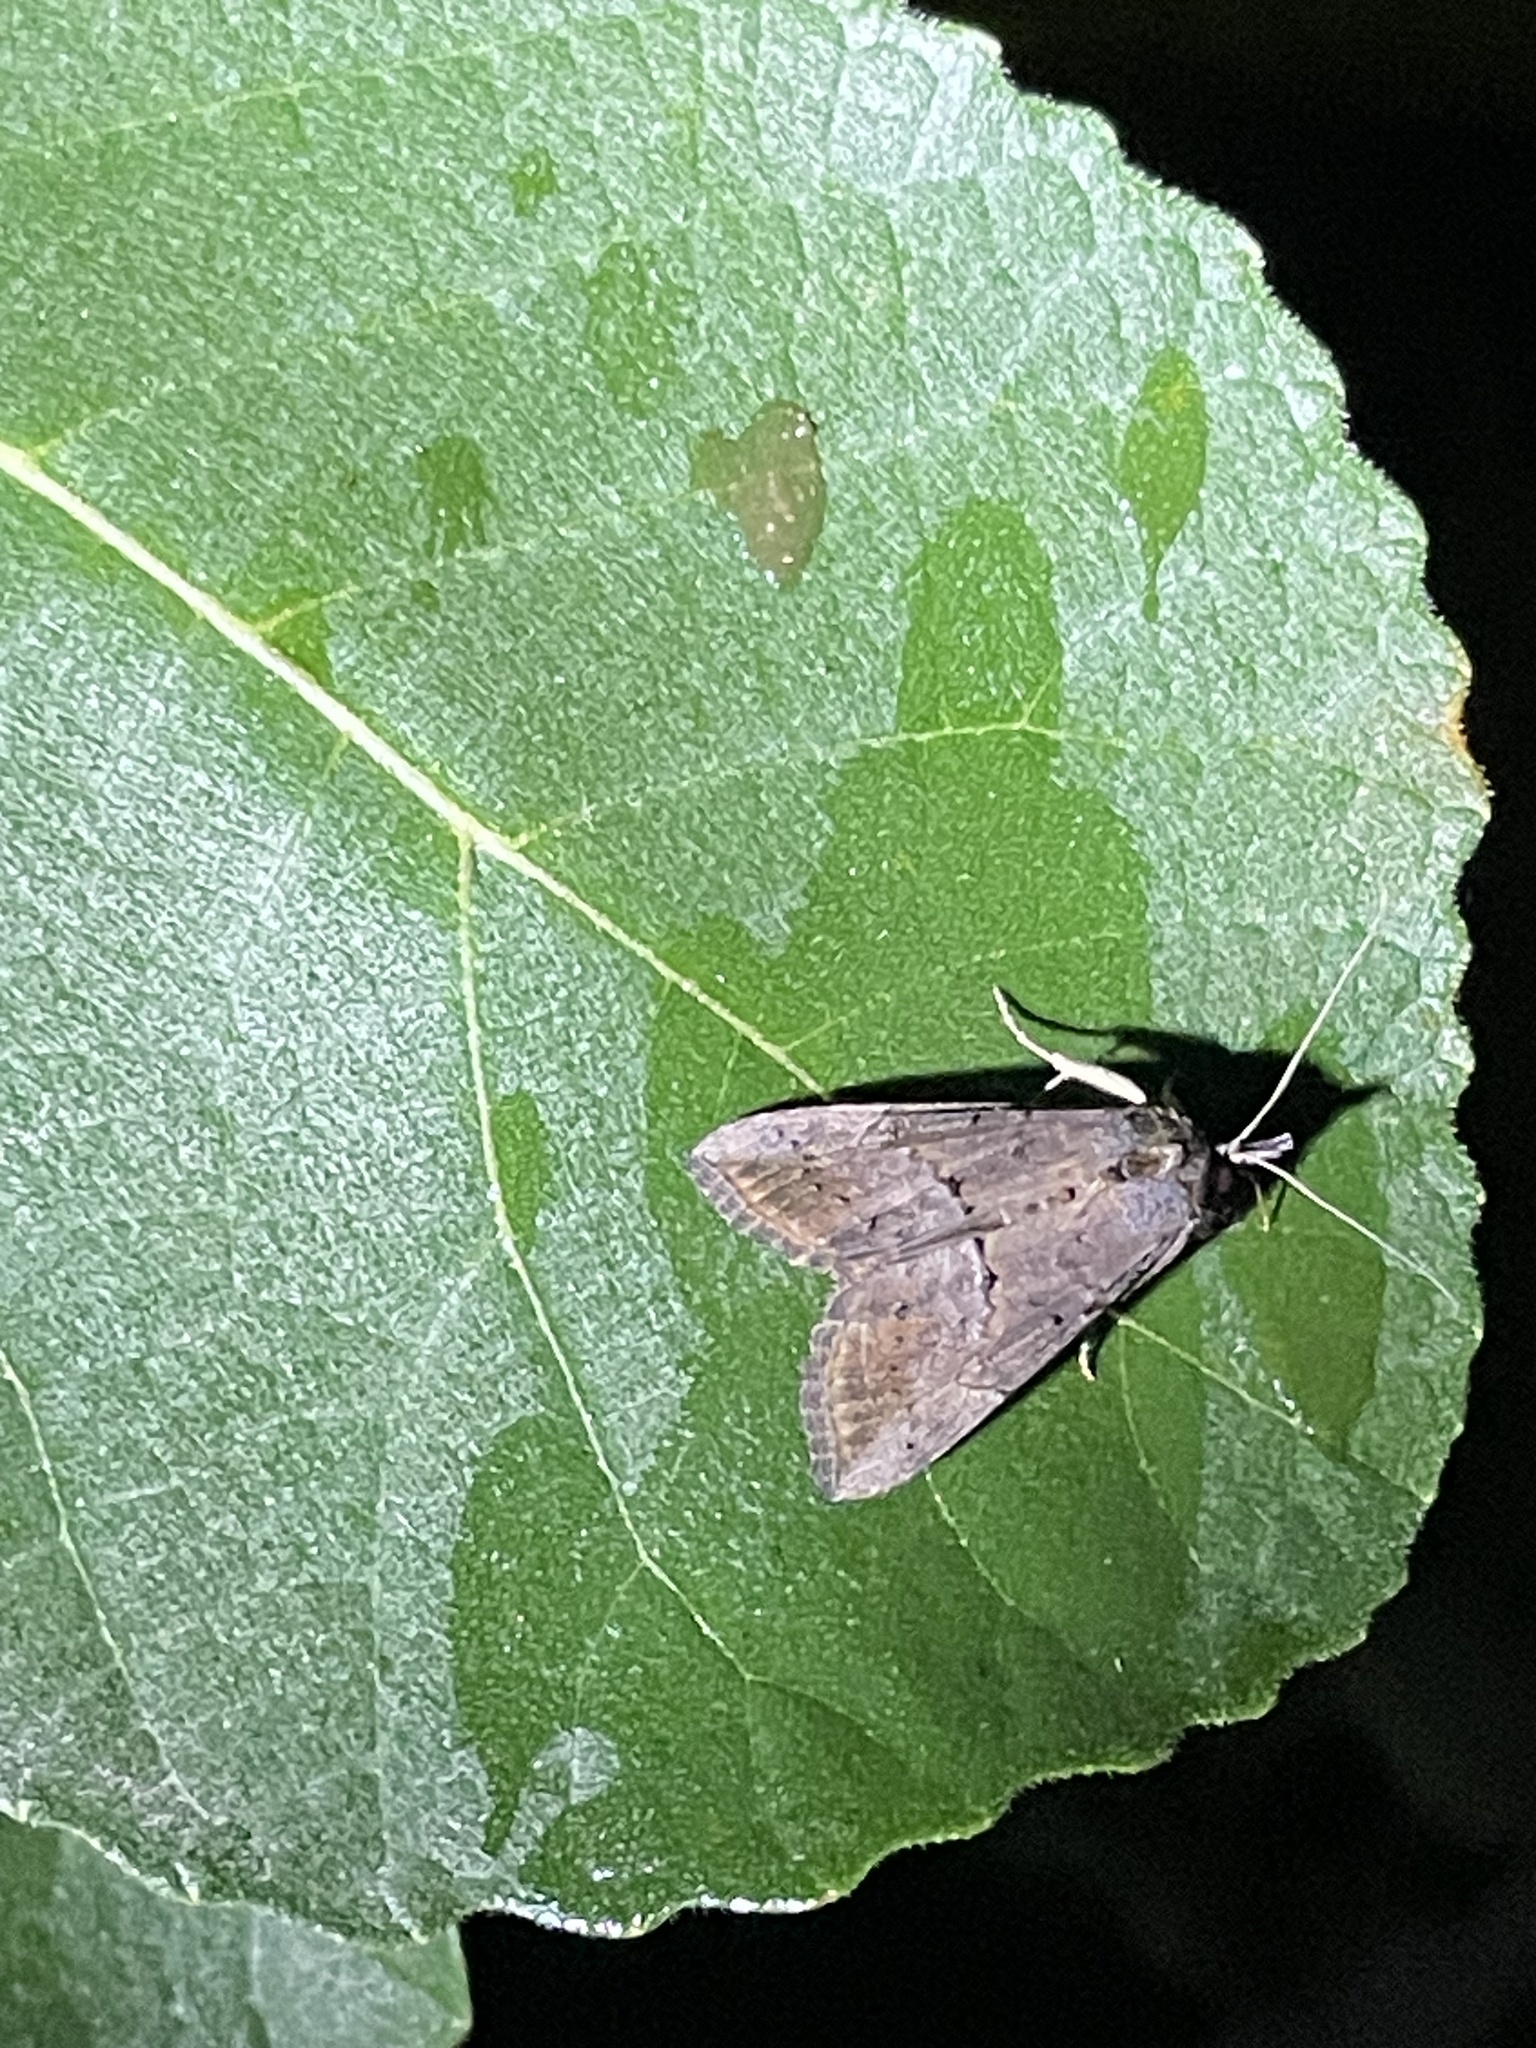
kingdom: Animalia
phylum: Arthropoda
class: Insecta
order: Lepidoptera
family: Erebidae
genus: Hypena
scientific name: Hypena scabra
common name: Green cloverworm
